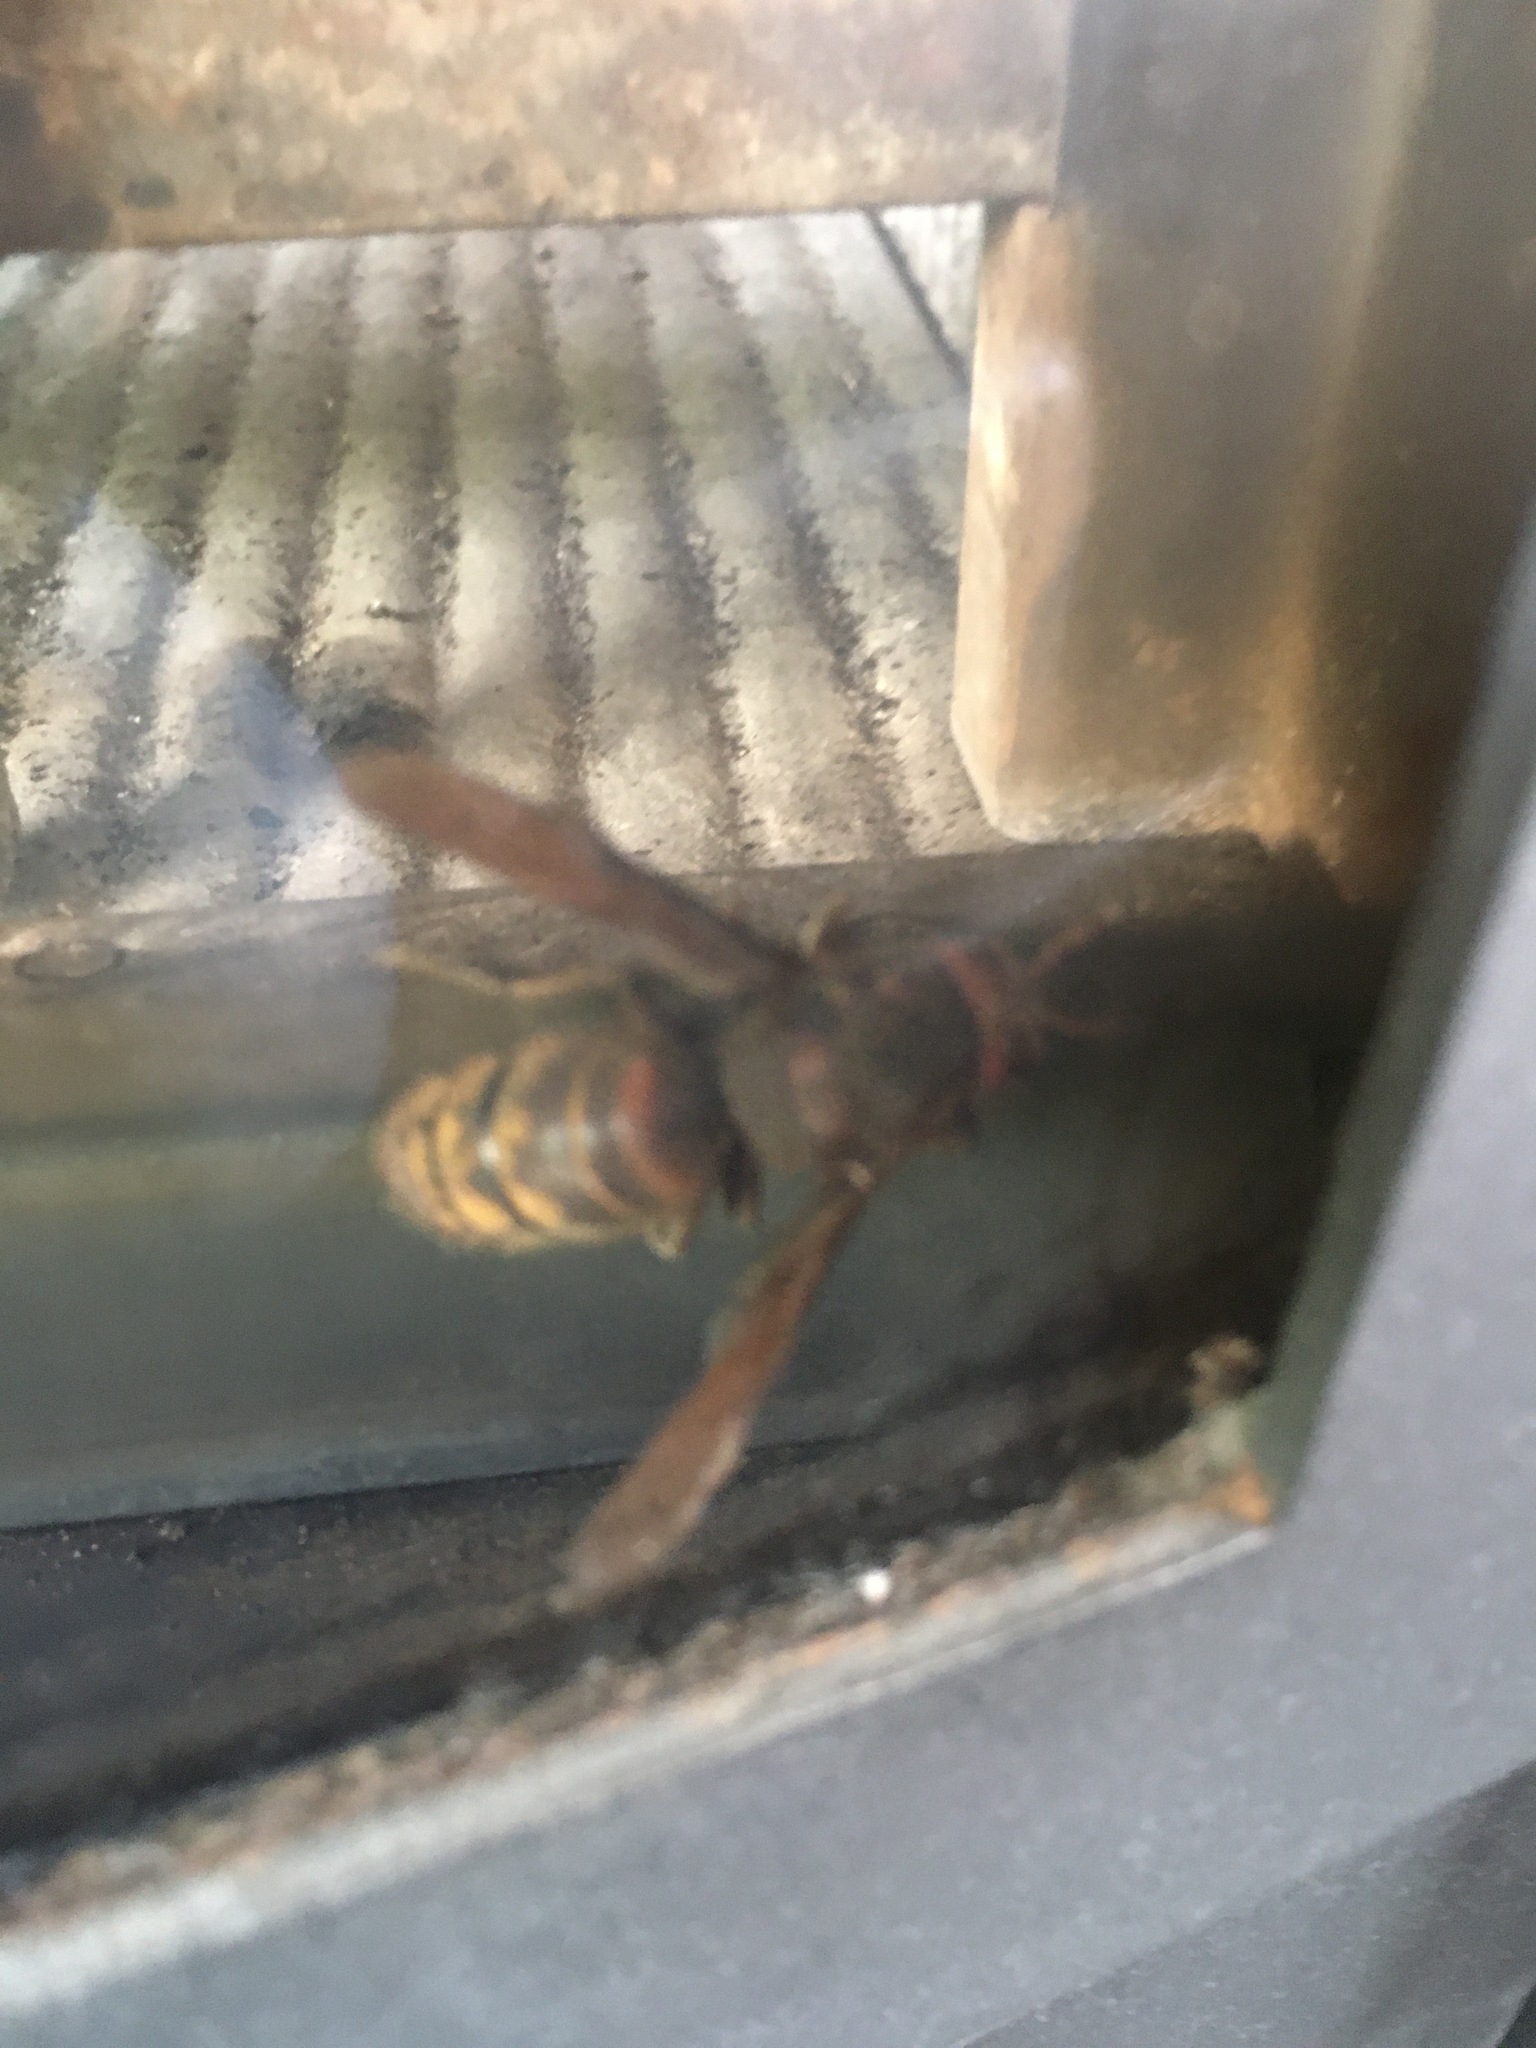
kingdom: Animalia
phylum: Arthropoda
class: Insecta
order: Hymenoptera
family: Vespidae
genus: Vespa
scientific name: Vespa crabro
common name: Hornet
